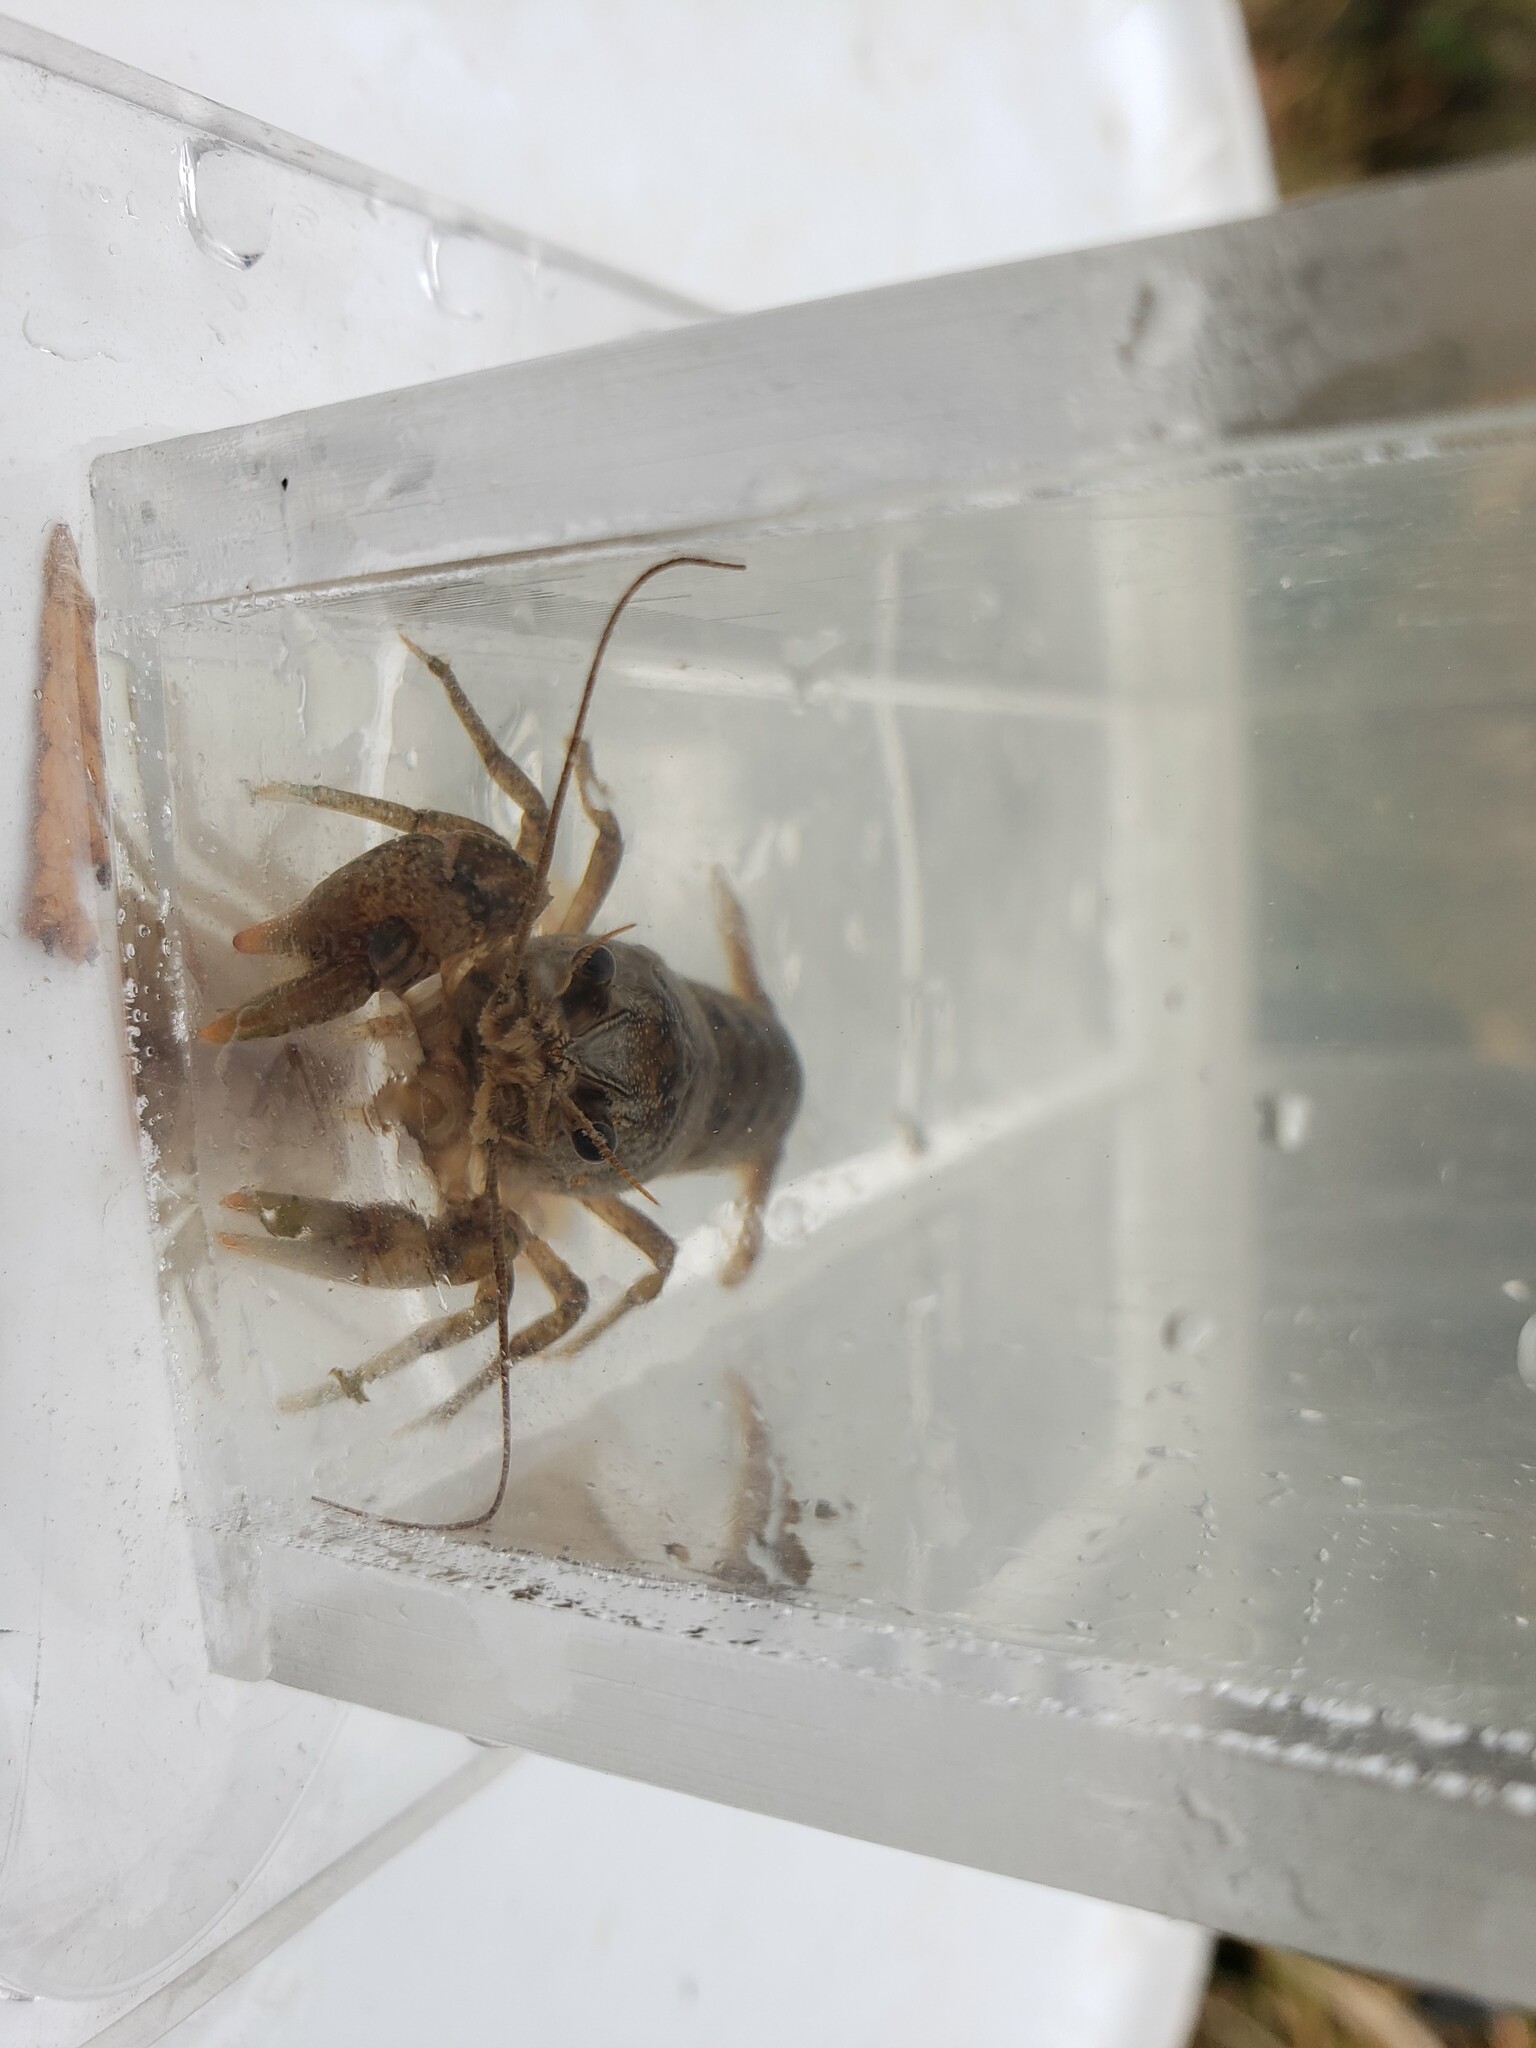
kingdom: Animalia
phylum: Arthropoda
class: Malacostraca
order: Decapoda
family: Cambaridae
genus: Faxonius
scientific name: Faxonius virilis
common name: Virile crayfish
